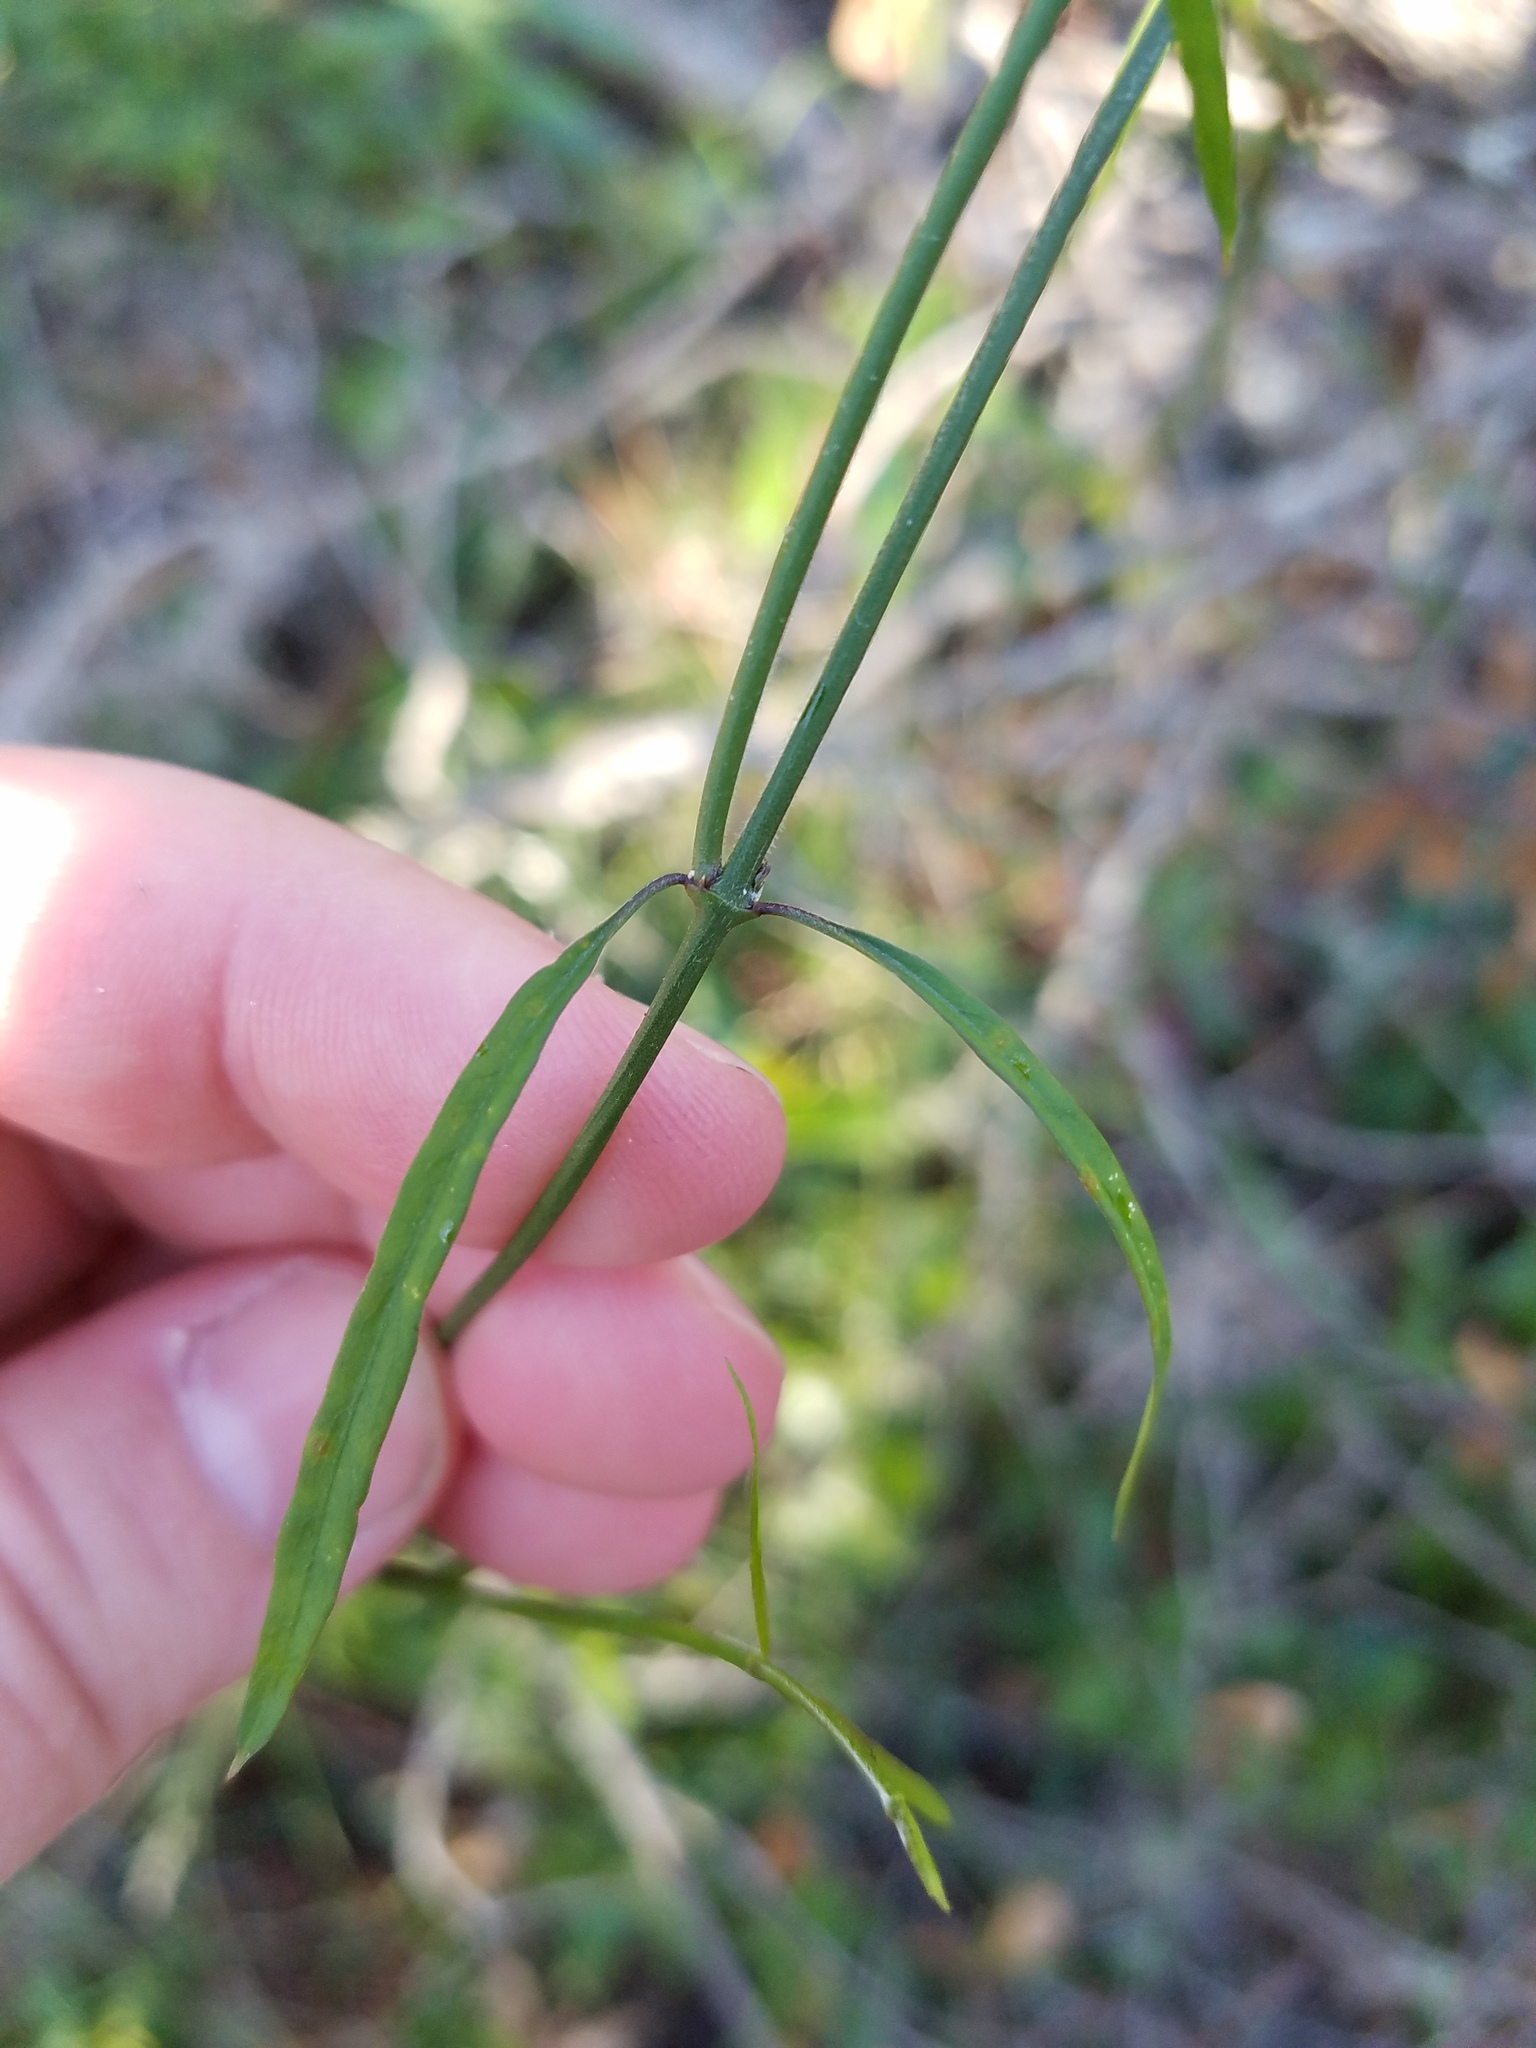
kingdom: Plantae
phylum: Tracheophyta
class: Magnoliopsida
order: Gentianales
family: Apocynaceae
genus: Orthosia
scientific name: Orthosia scoparia
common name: Leafless swallow-wort
